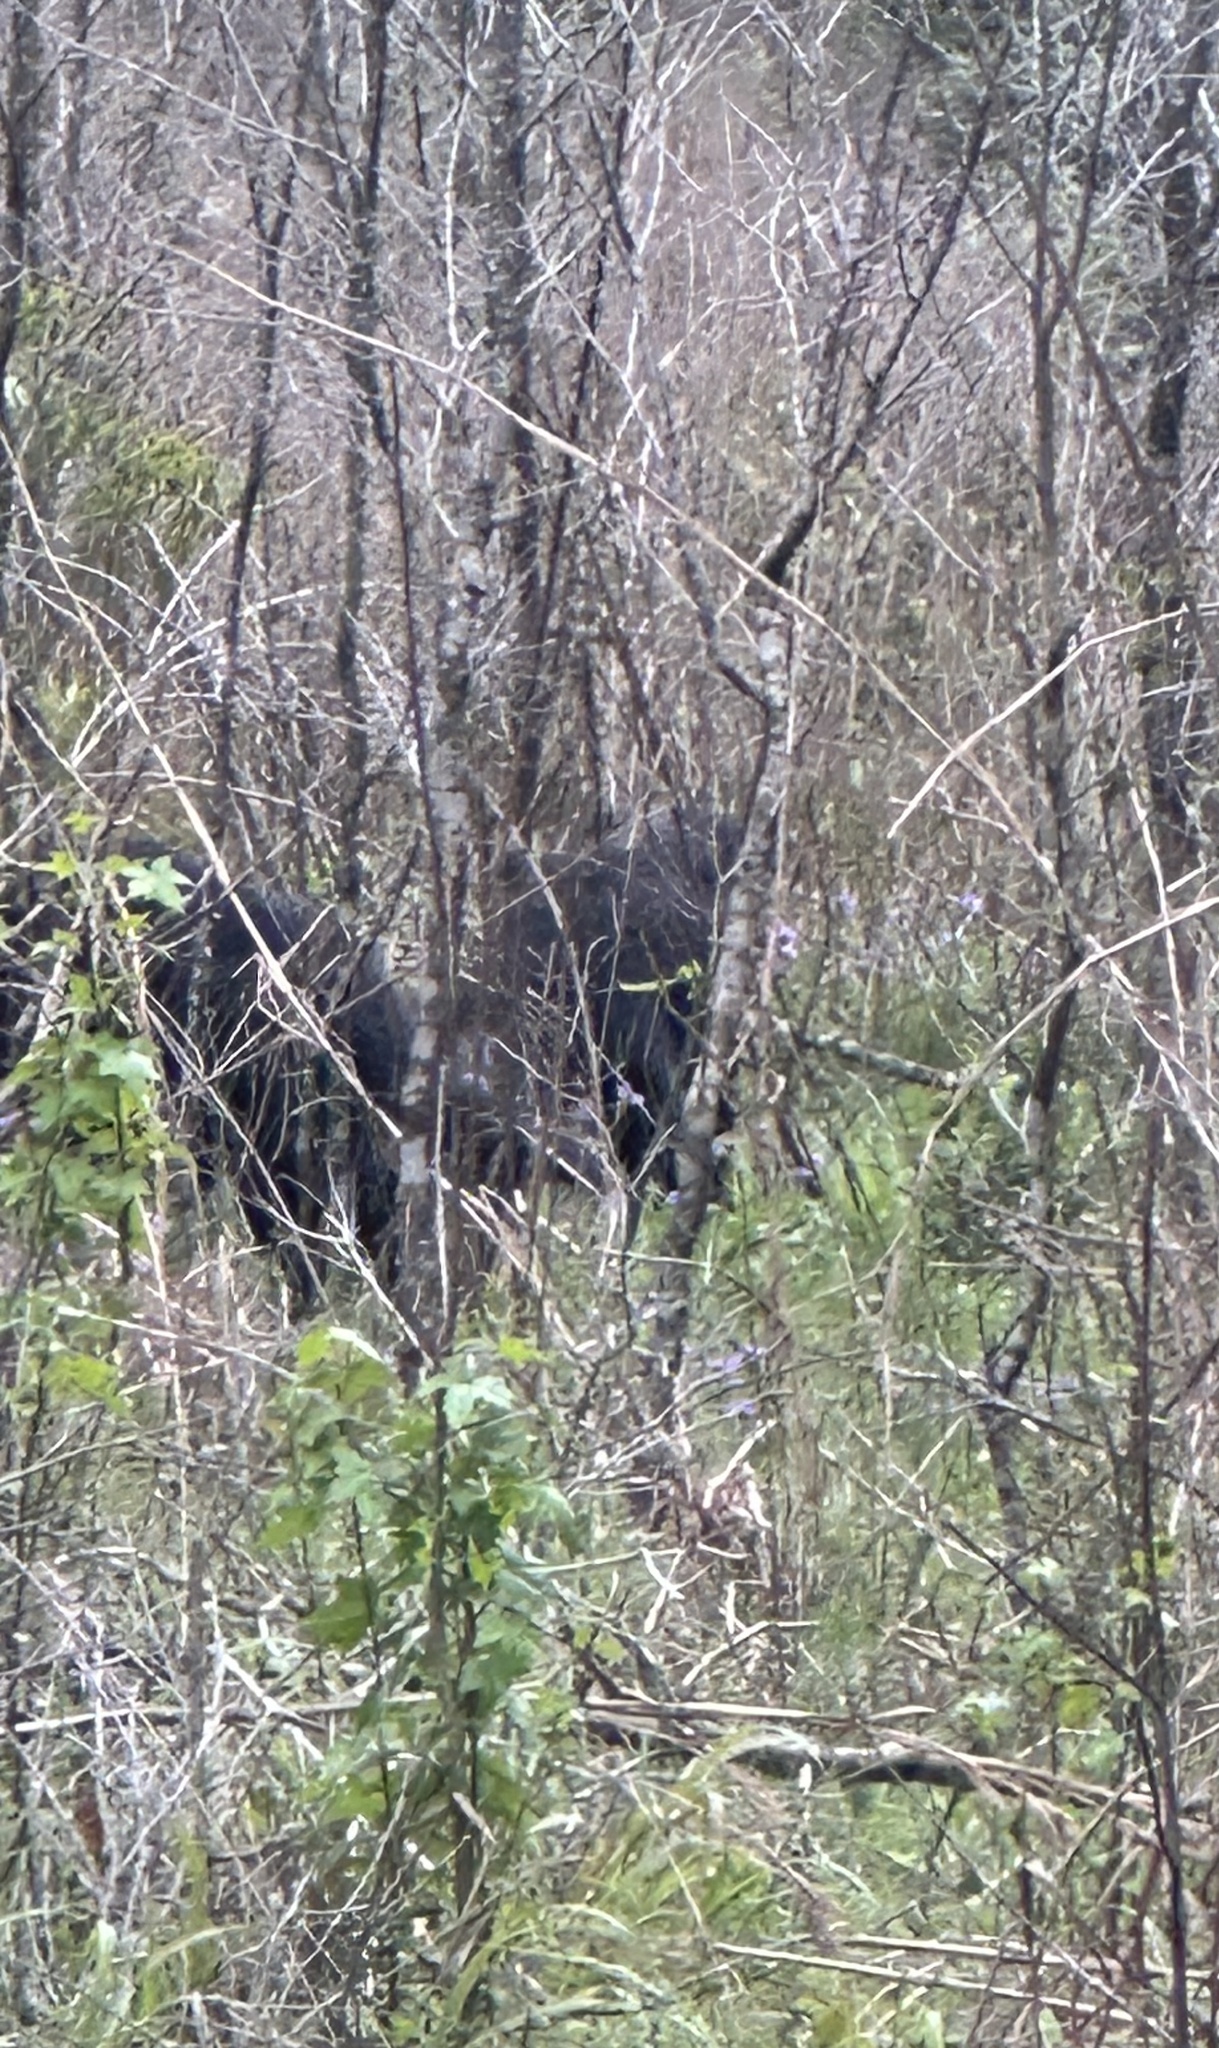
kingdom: Animalia
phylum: Chordata
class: Mammalia
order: Artiodactyla
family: Suidae
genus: Sus
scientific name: Sus scrofa
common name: Wild boar
